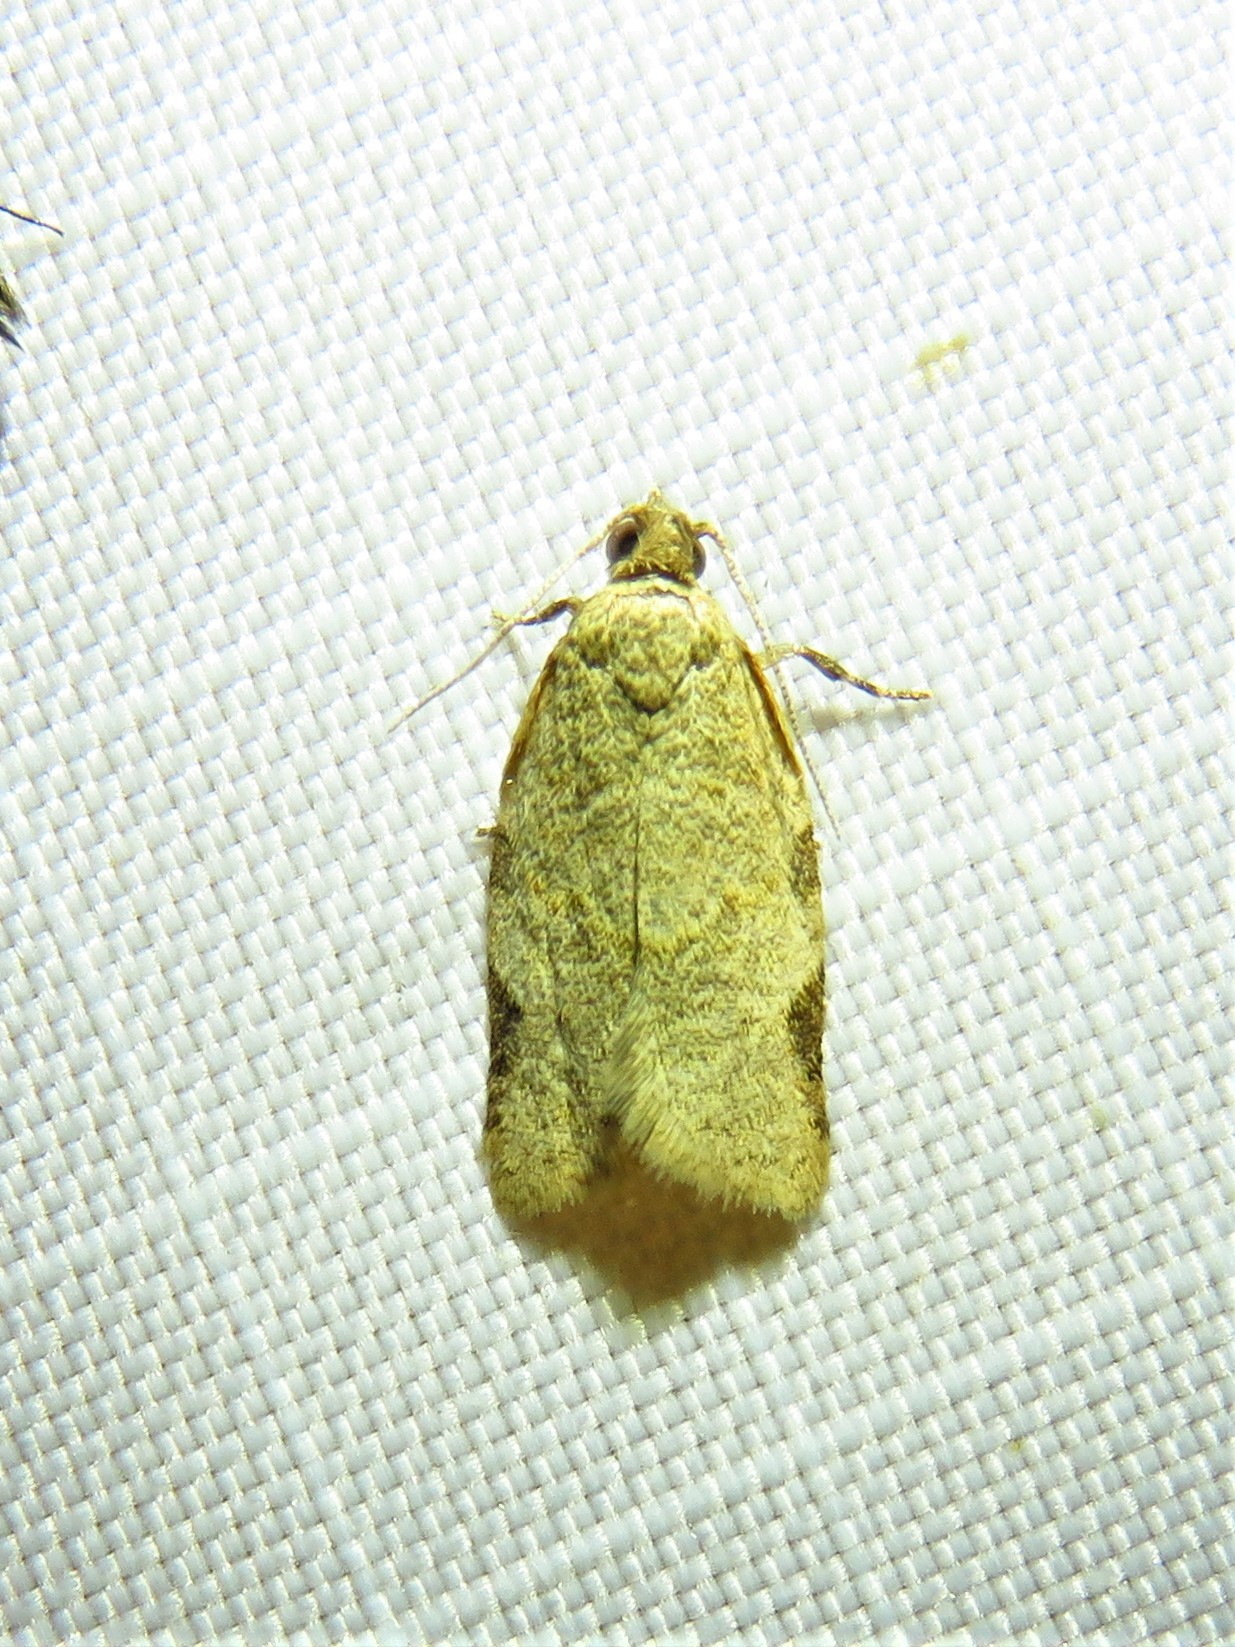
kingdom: Animalia
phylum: Arthropoda
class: Insecta
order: Lepidoptera
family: Tortricidae
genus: Clepsis
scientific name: Clepsis virescana
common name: Greenish apple moth
